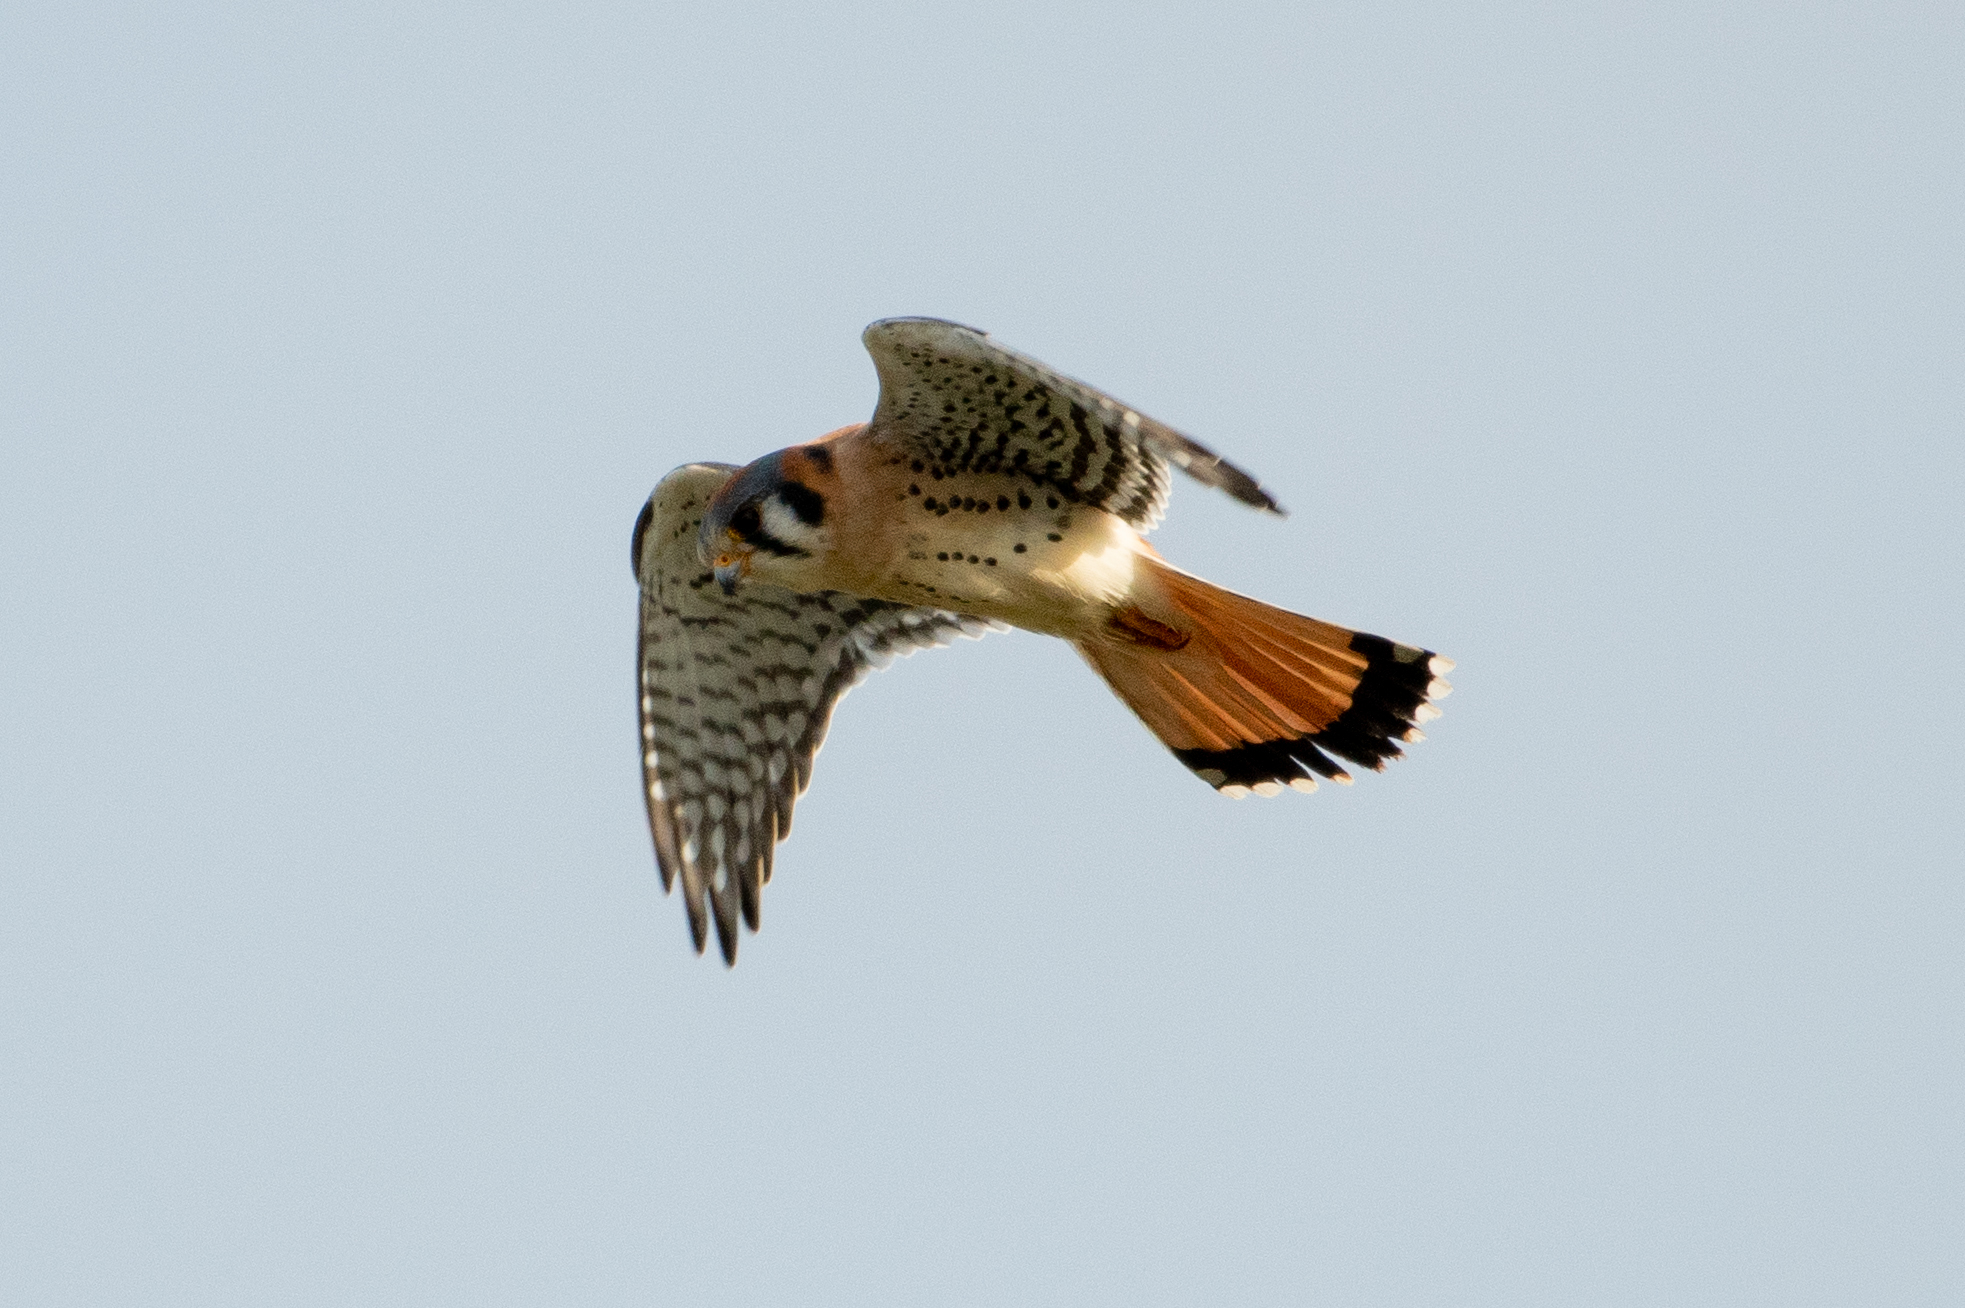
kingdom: Animalia
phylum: Chordata
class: Aves
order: Falconiformes
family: Falconidae
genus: Falco
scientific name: Falco sparverius
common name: American kestrel
